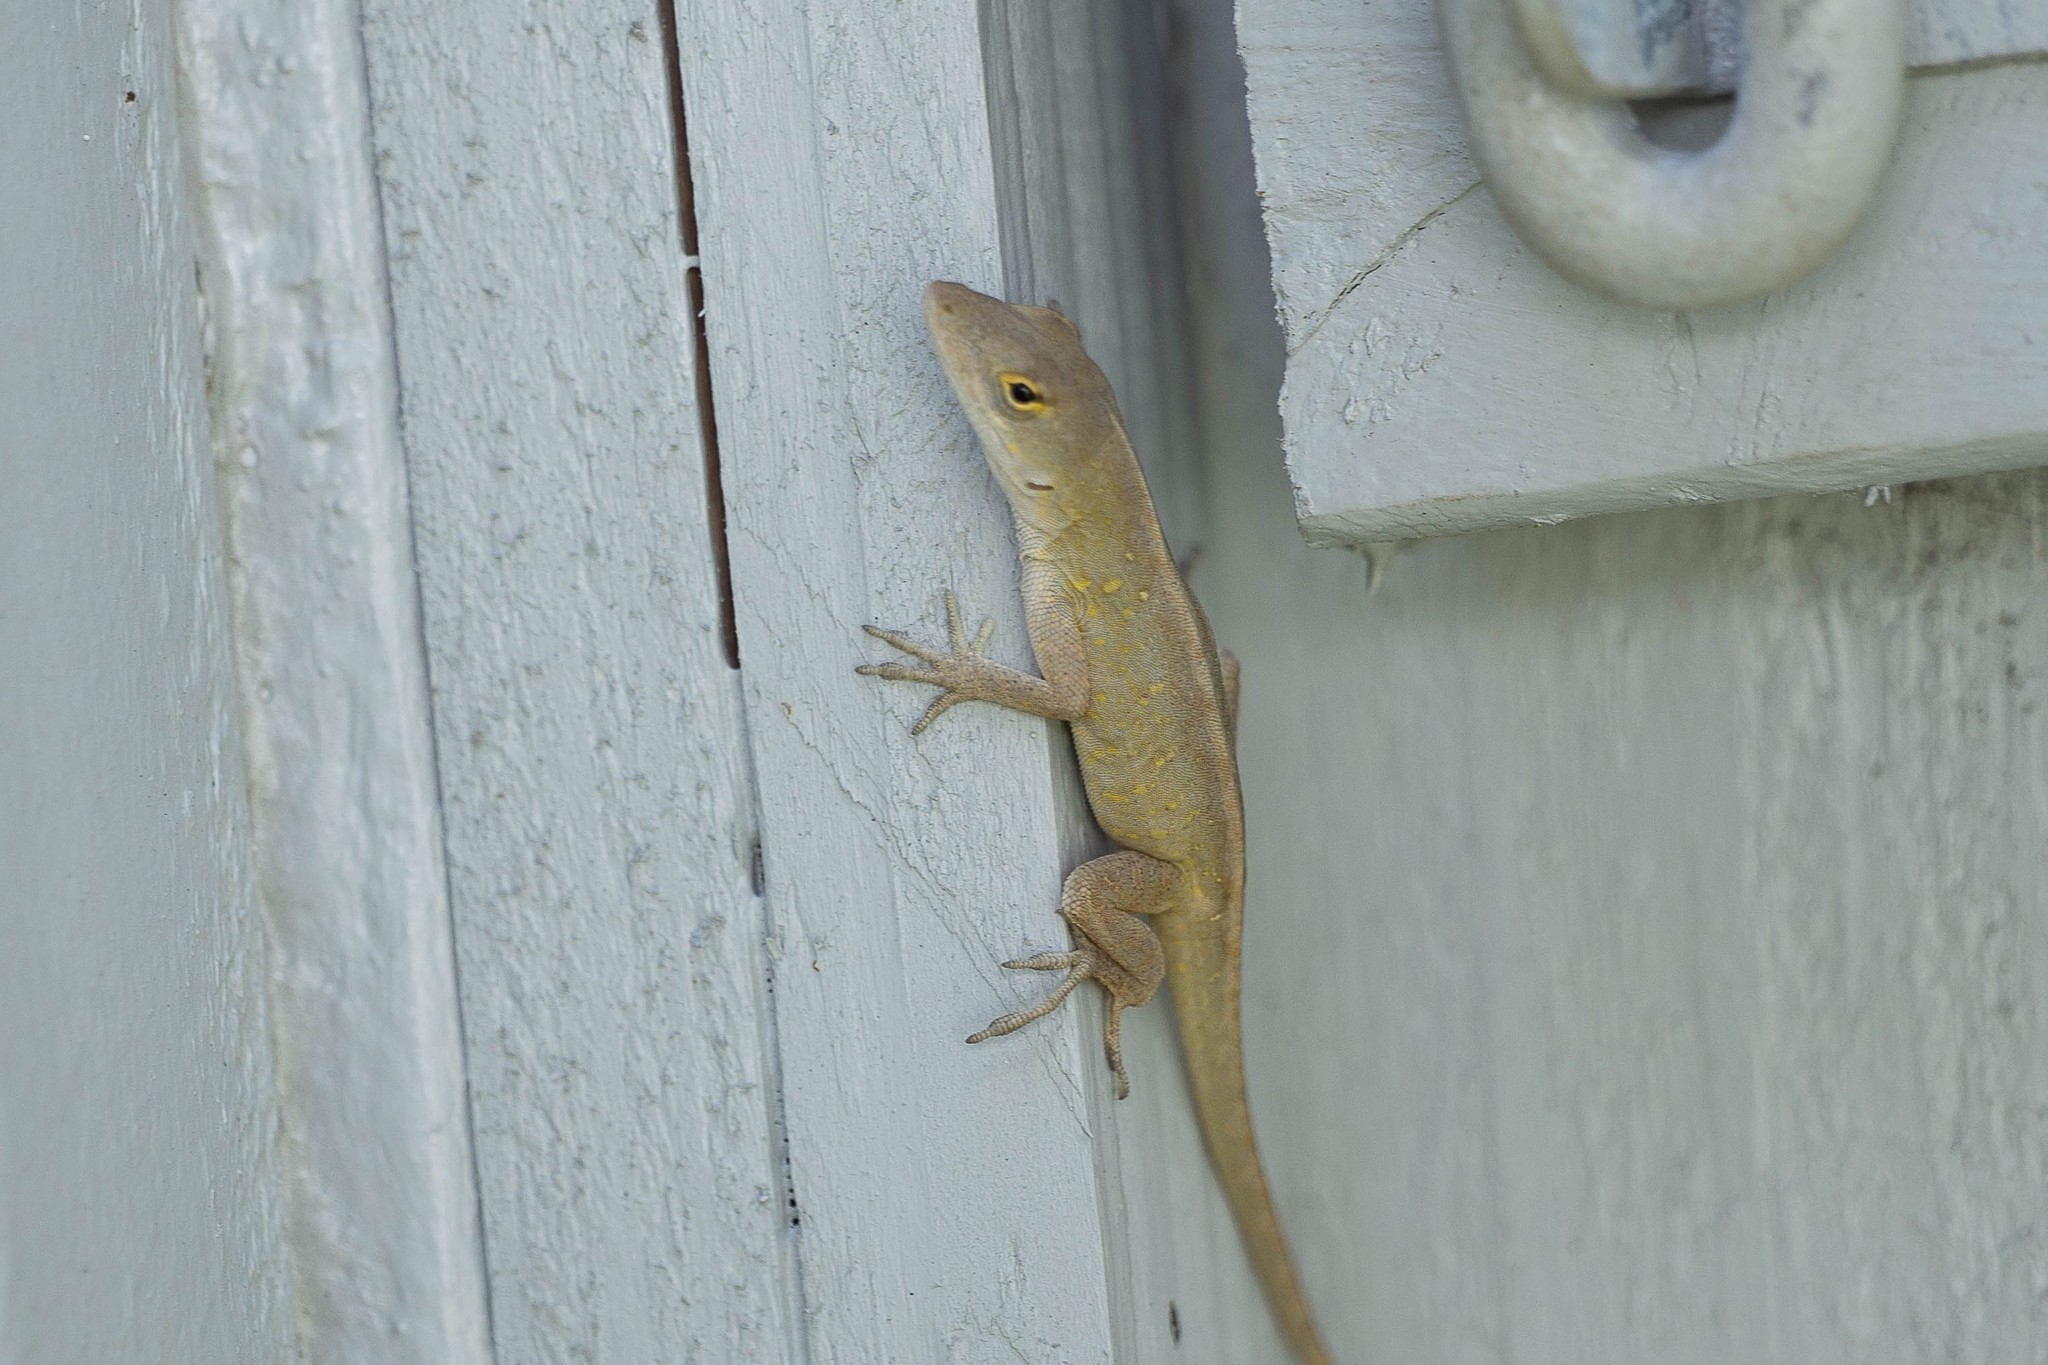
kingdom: Animalia
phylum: Chordata
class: Squamata
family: Dactyloidae
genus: Anolis
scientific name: Anolis sagrei
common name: Brown anole
